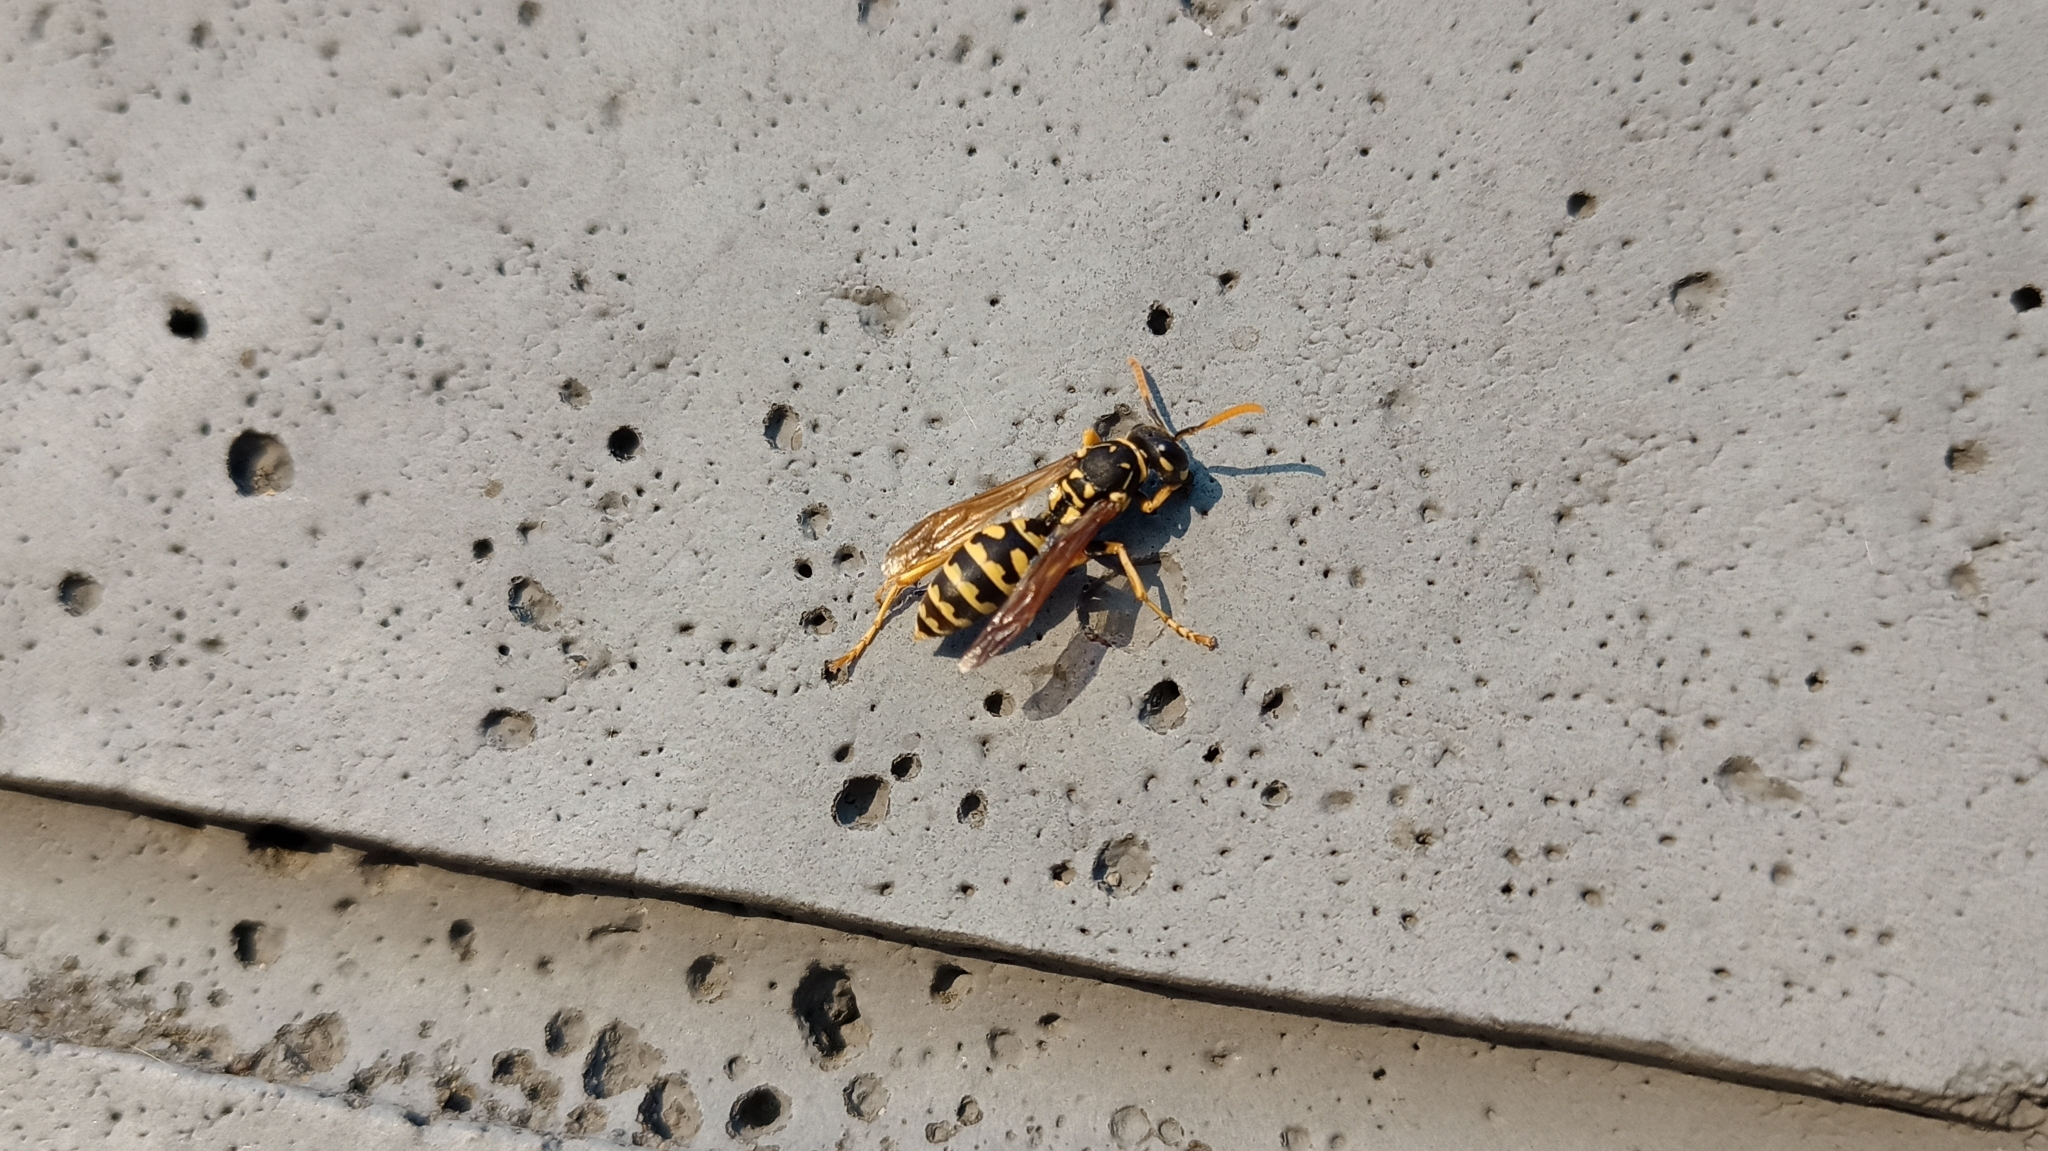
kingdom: Animalia
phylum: Arthropoda
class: Insecta
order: Hymenoptera
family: Eumenidae
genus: Polistes
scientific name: Polistes dominula
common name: Paper wasp
